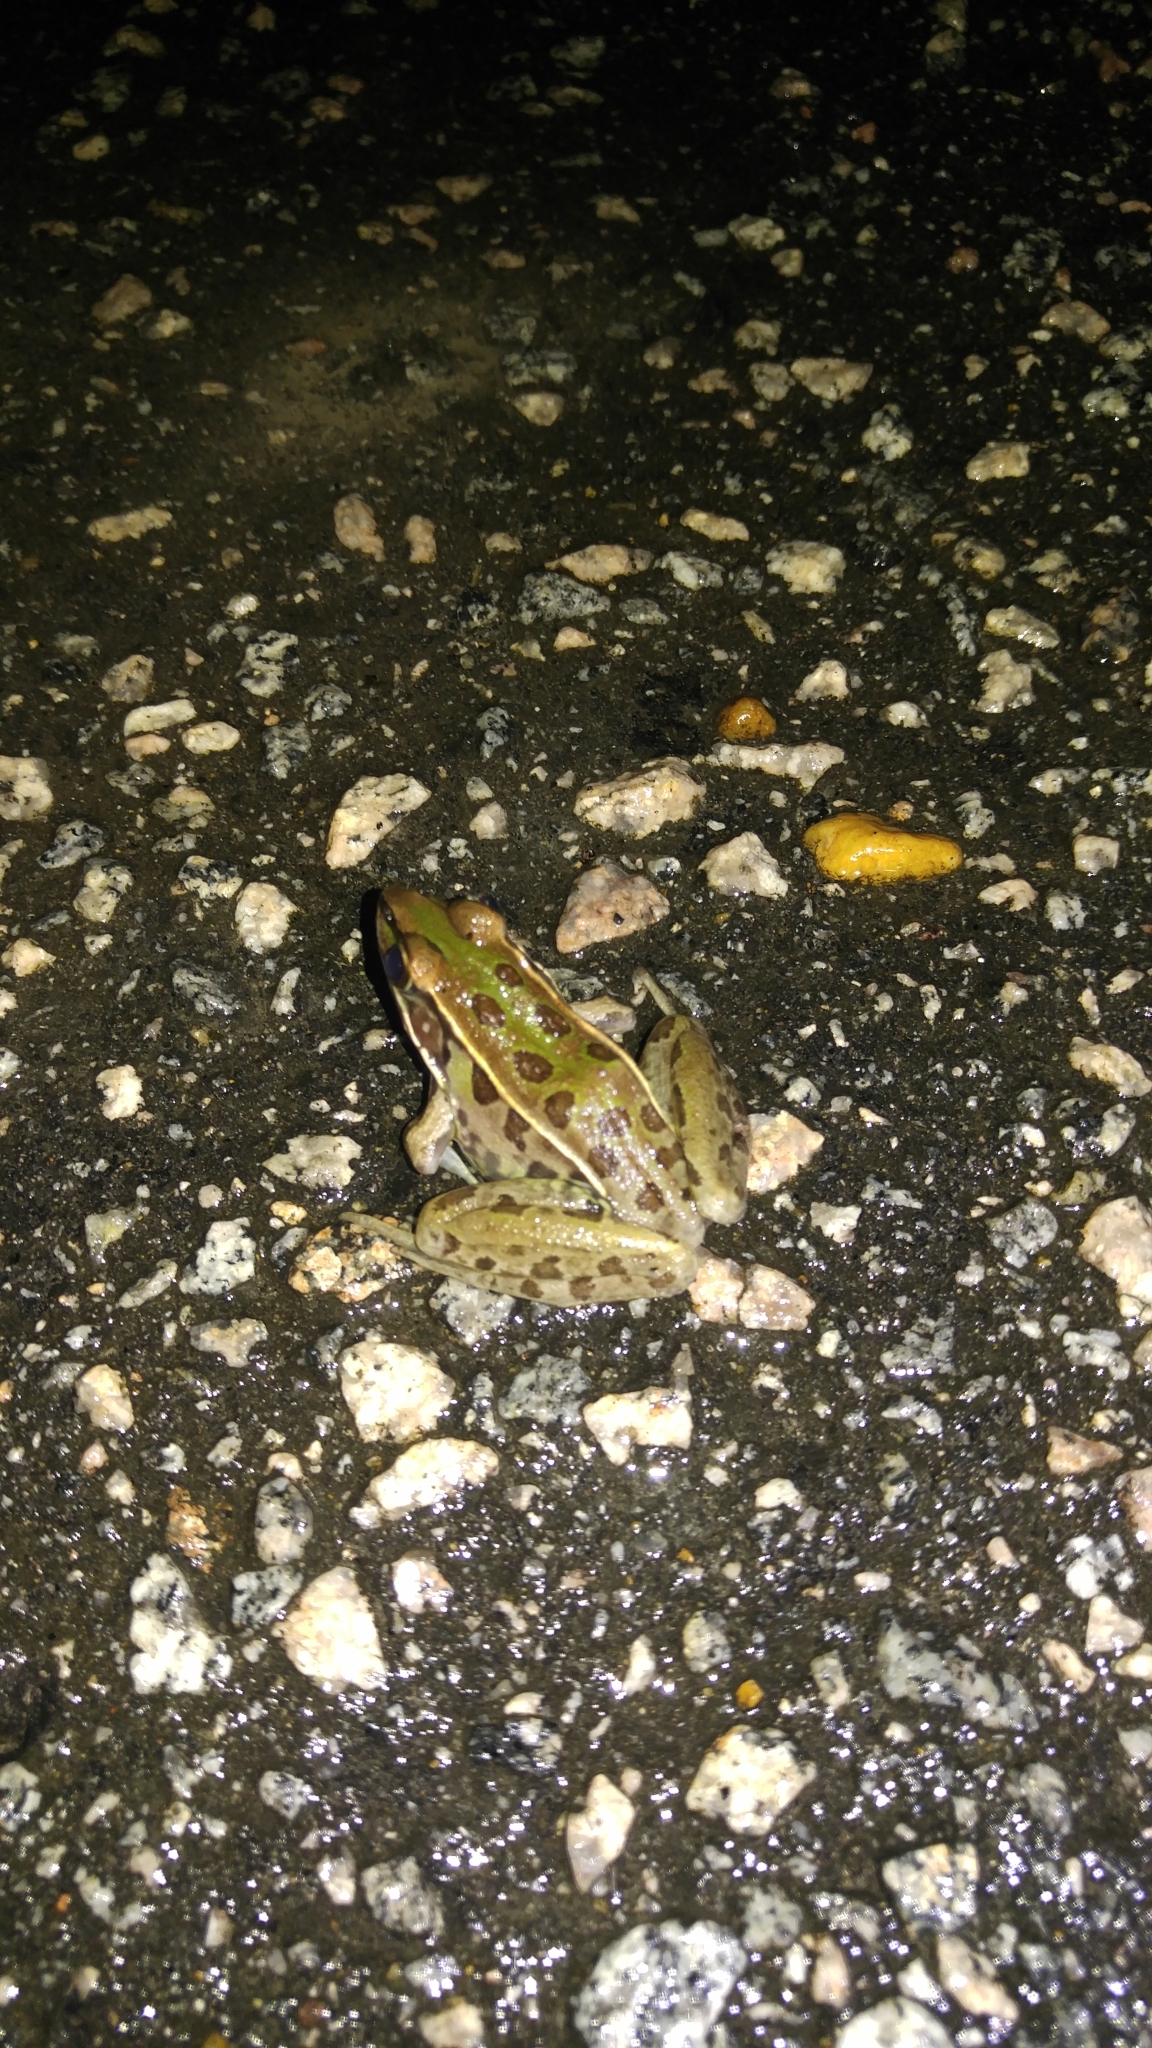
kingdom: Animalia
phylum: Chordata
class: Amphibia
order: Anura
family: Ranidae
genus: Lithobates
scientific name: Lithobates sphenocephalus
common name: Southern leopard frog
